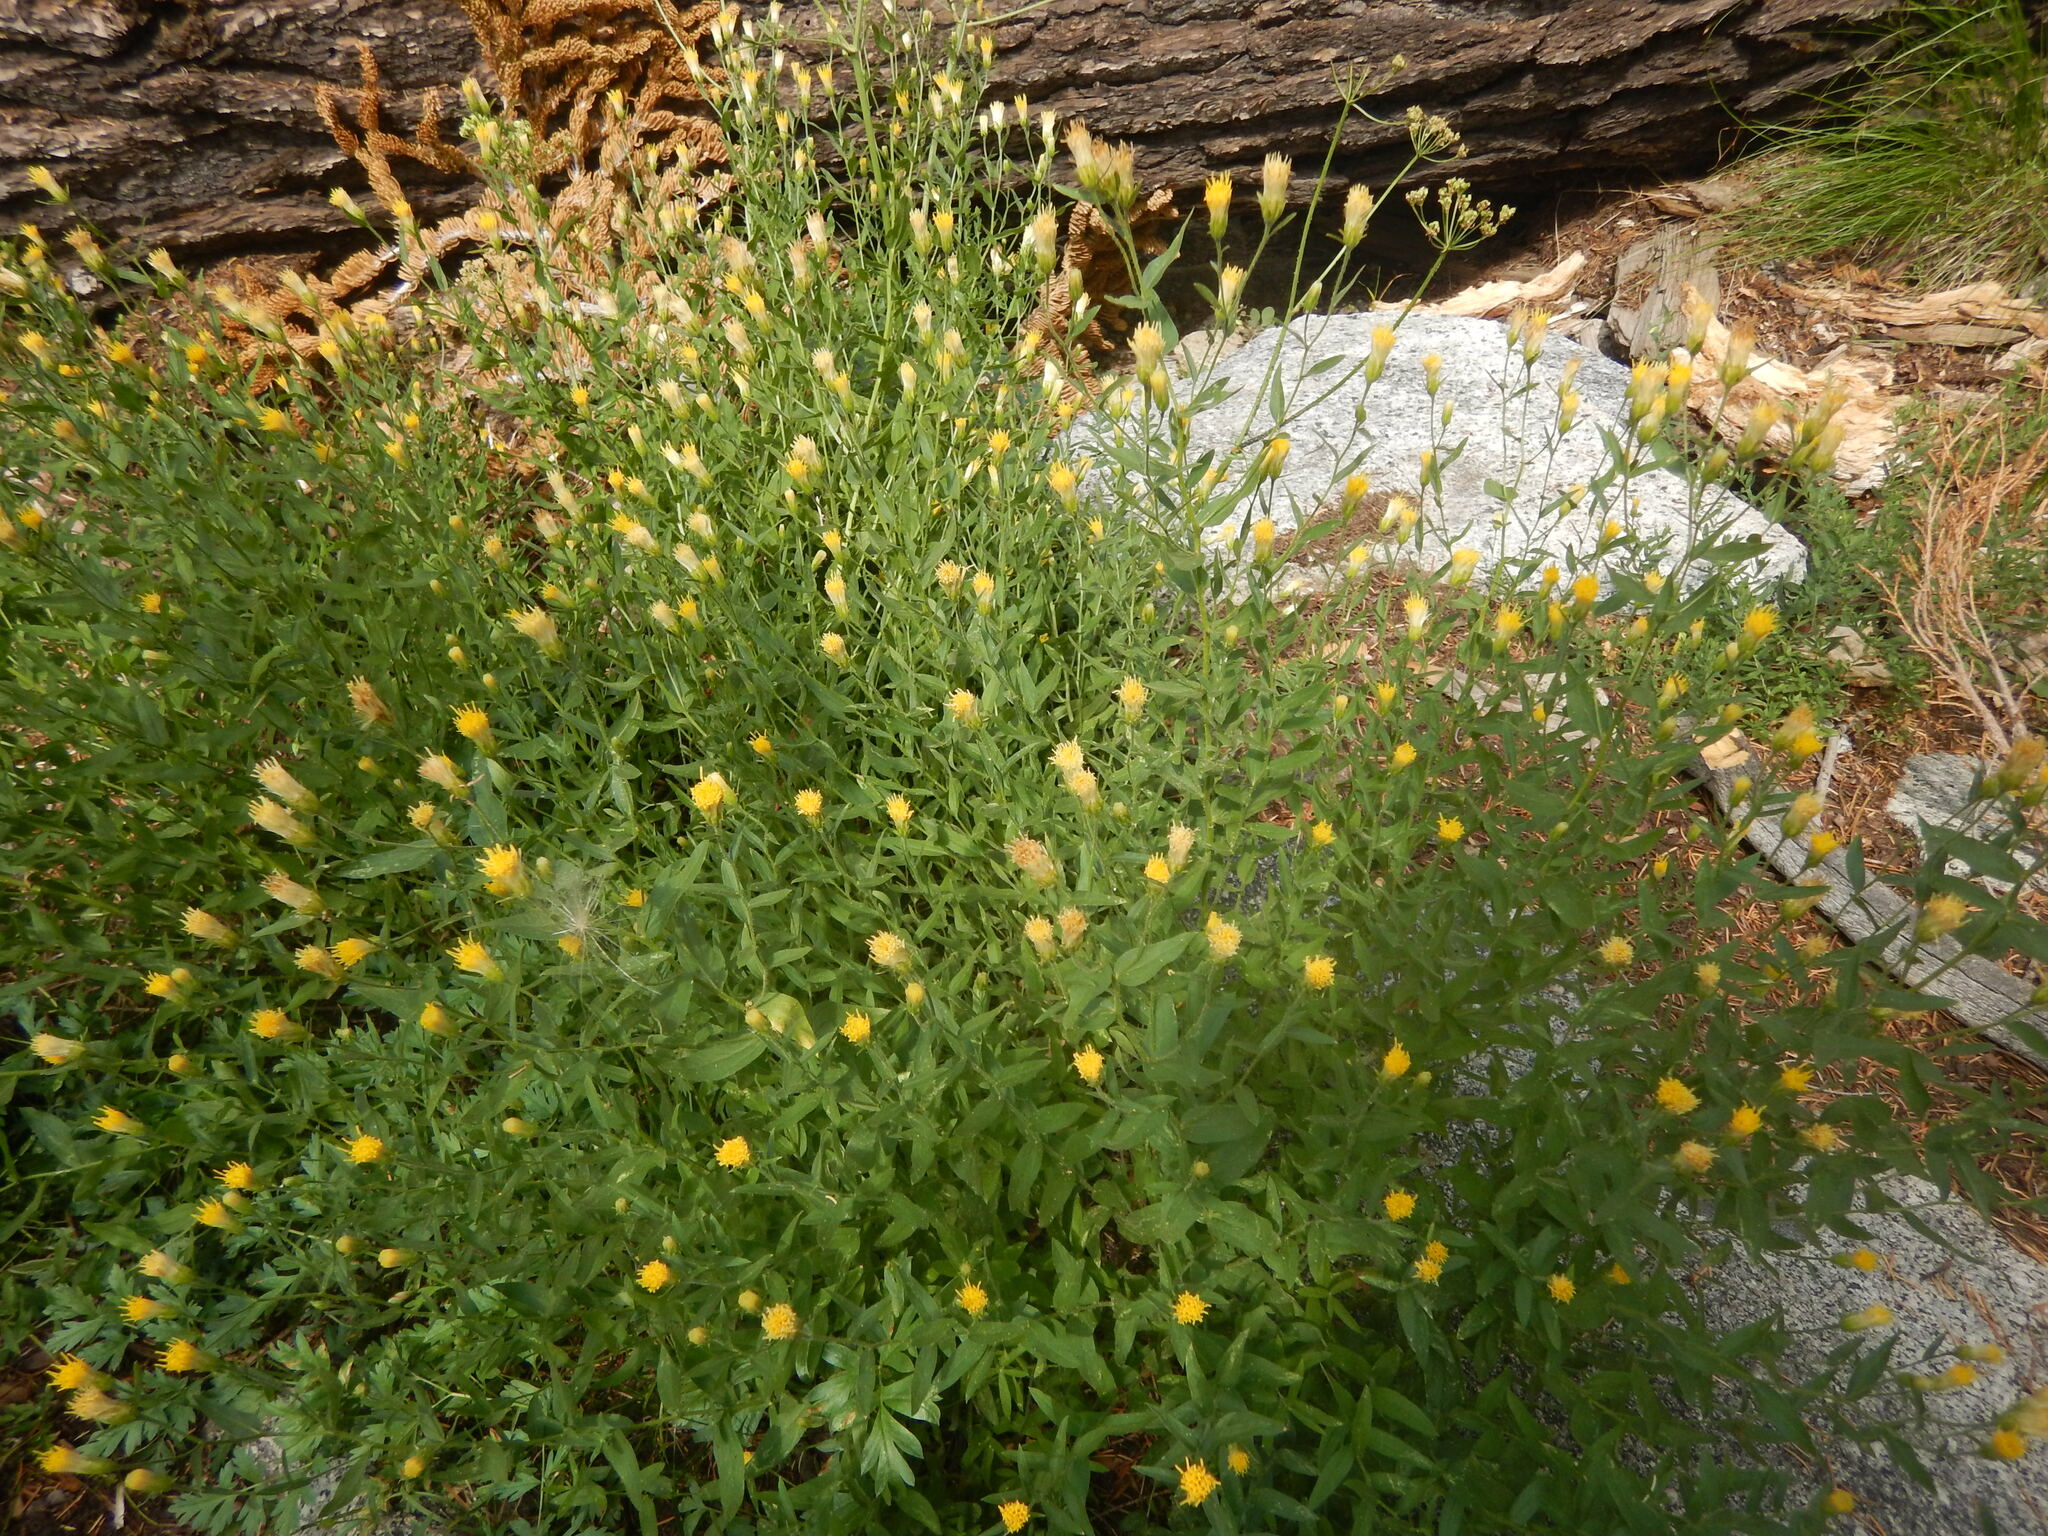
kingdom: Plantae
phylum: Tracheophyta
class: Magnoliopsida
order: Asterales
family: Asteraceae
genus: Eucephalus
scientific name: Eucephalus breweri
